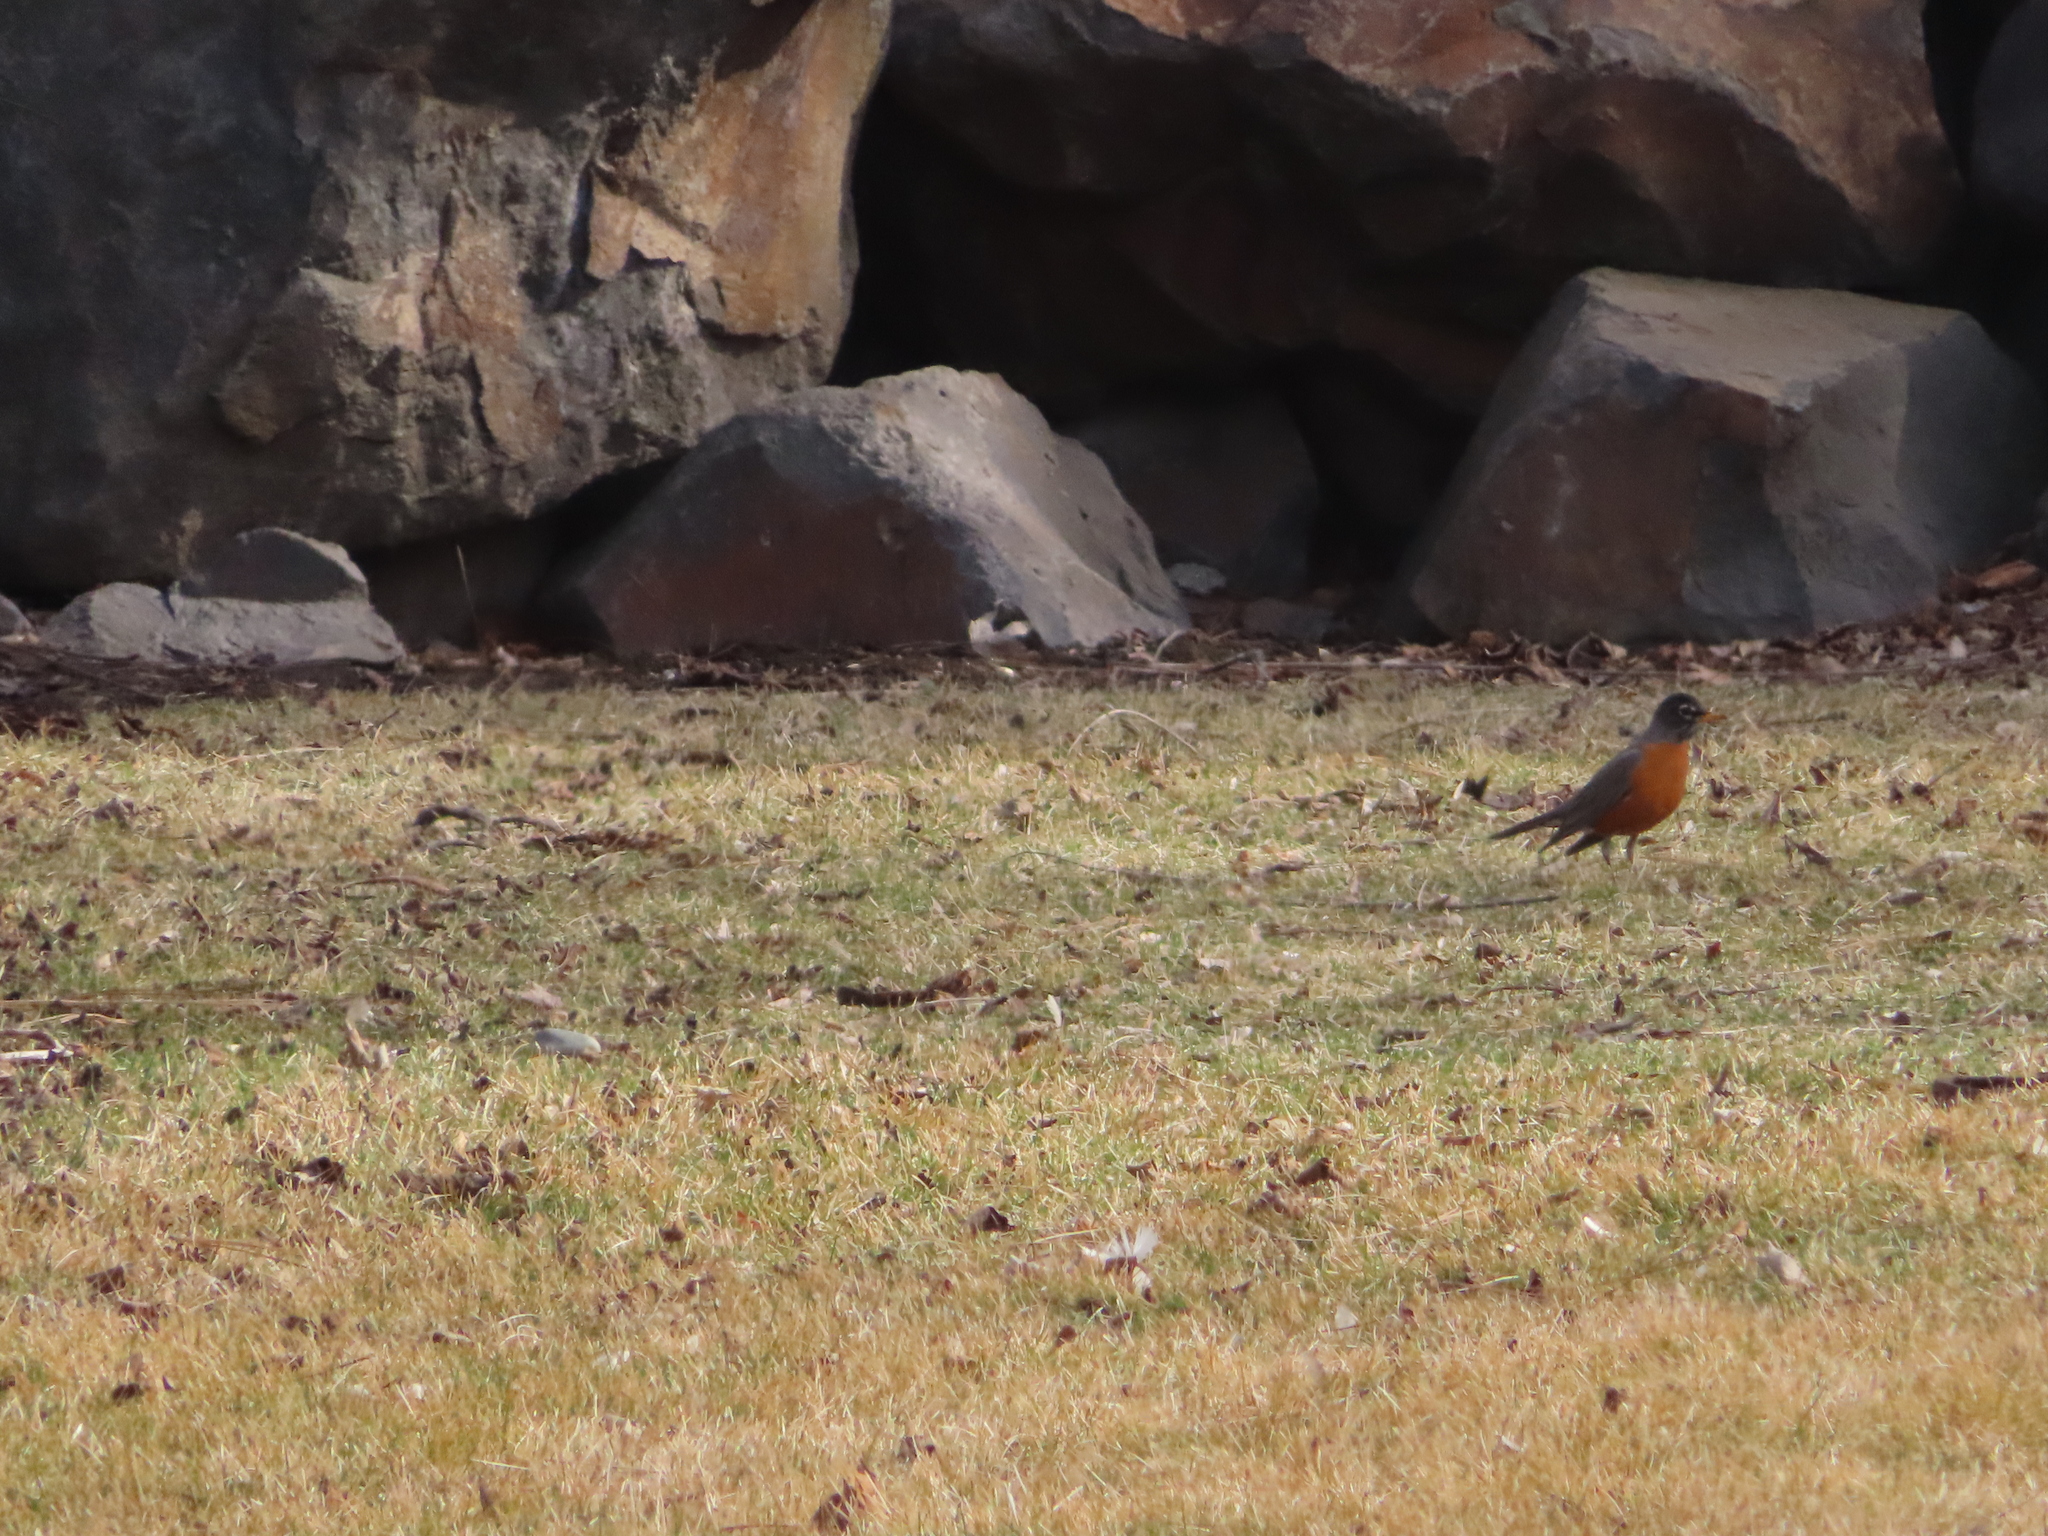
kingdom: Animalia
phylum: Chordata
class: Aves
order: Passeriformes
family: Turdidae
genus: Turdus
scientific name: Turdus migratorius
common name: American robin
